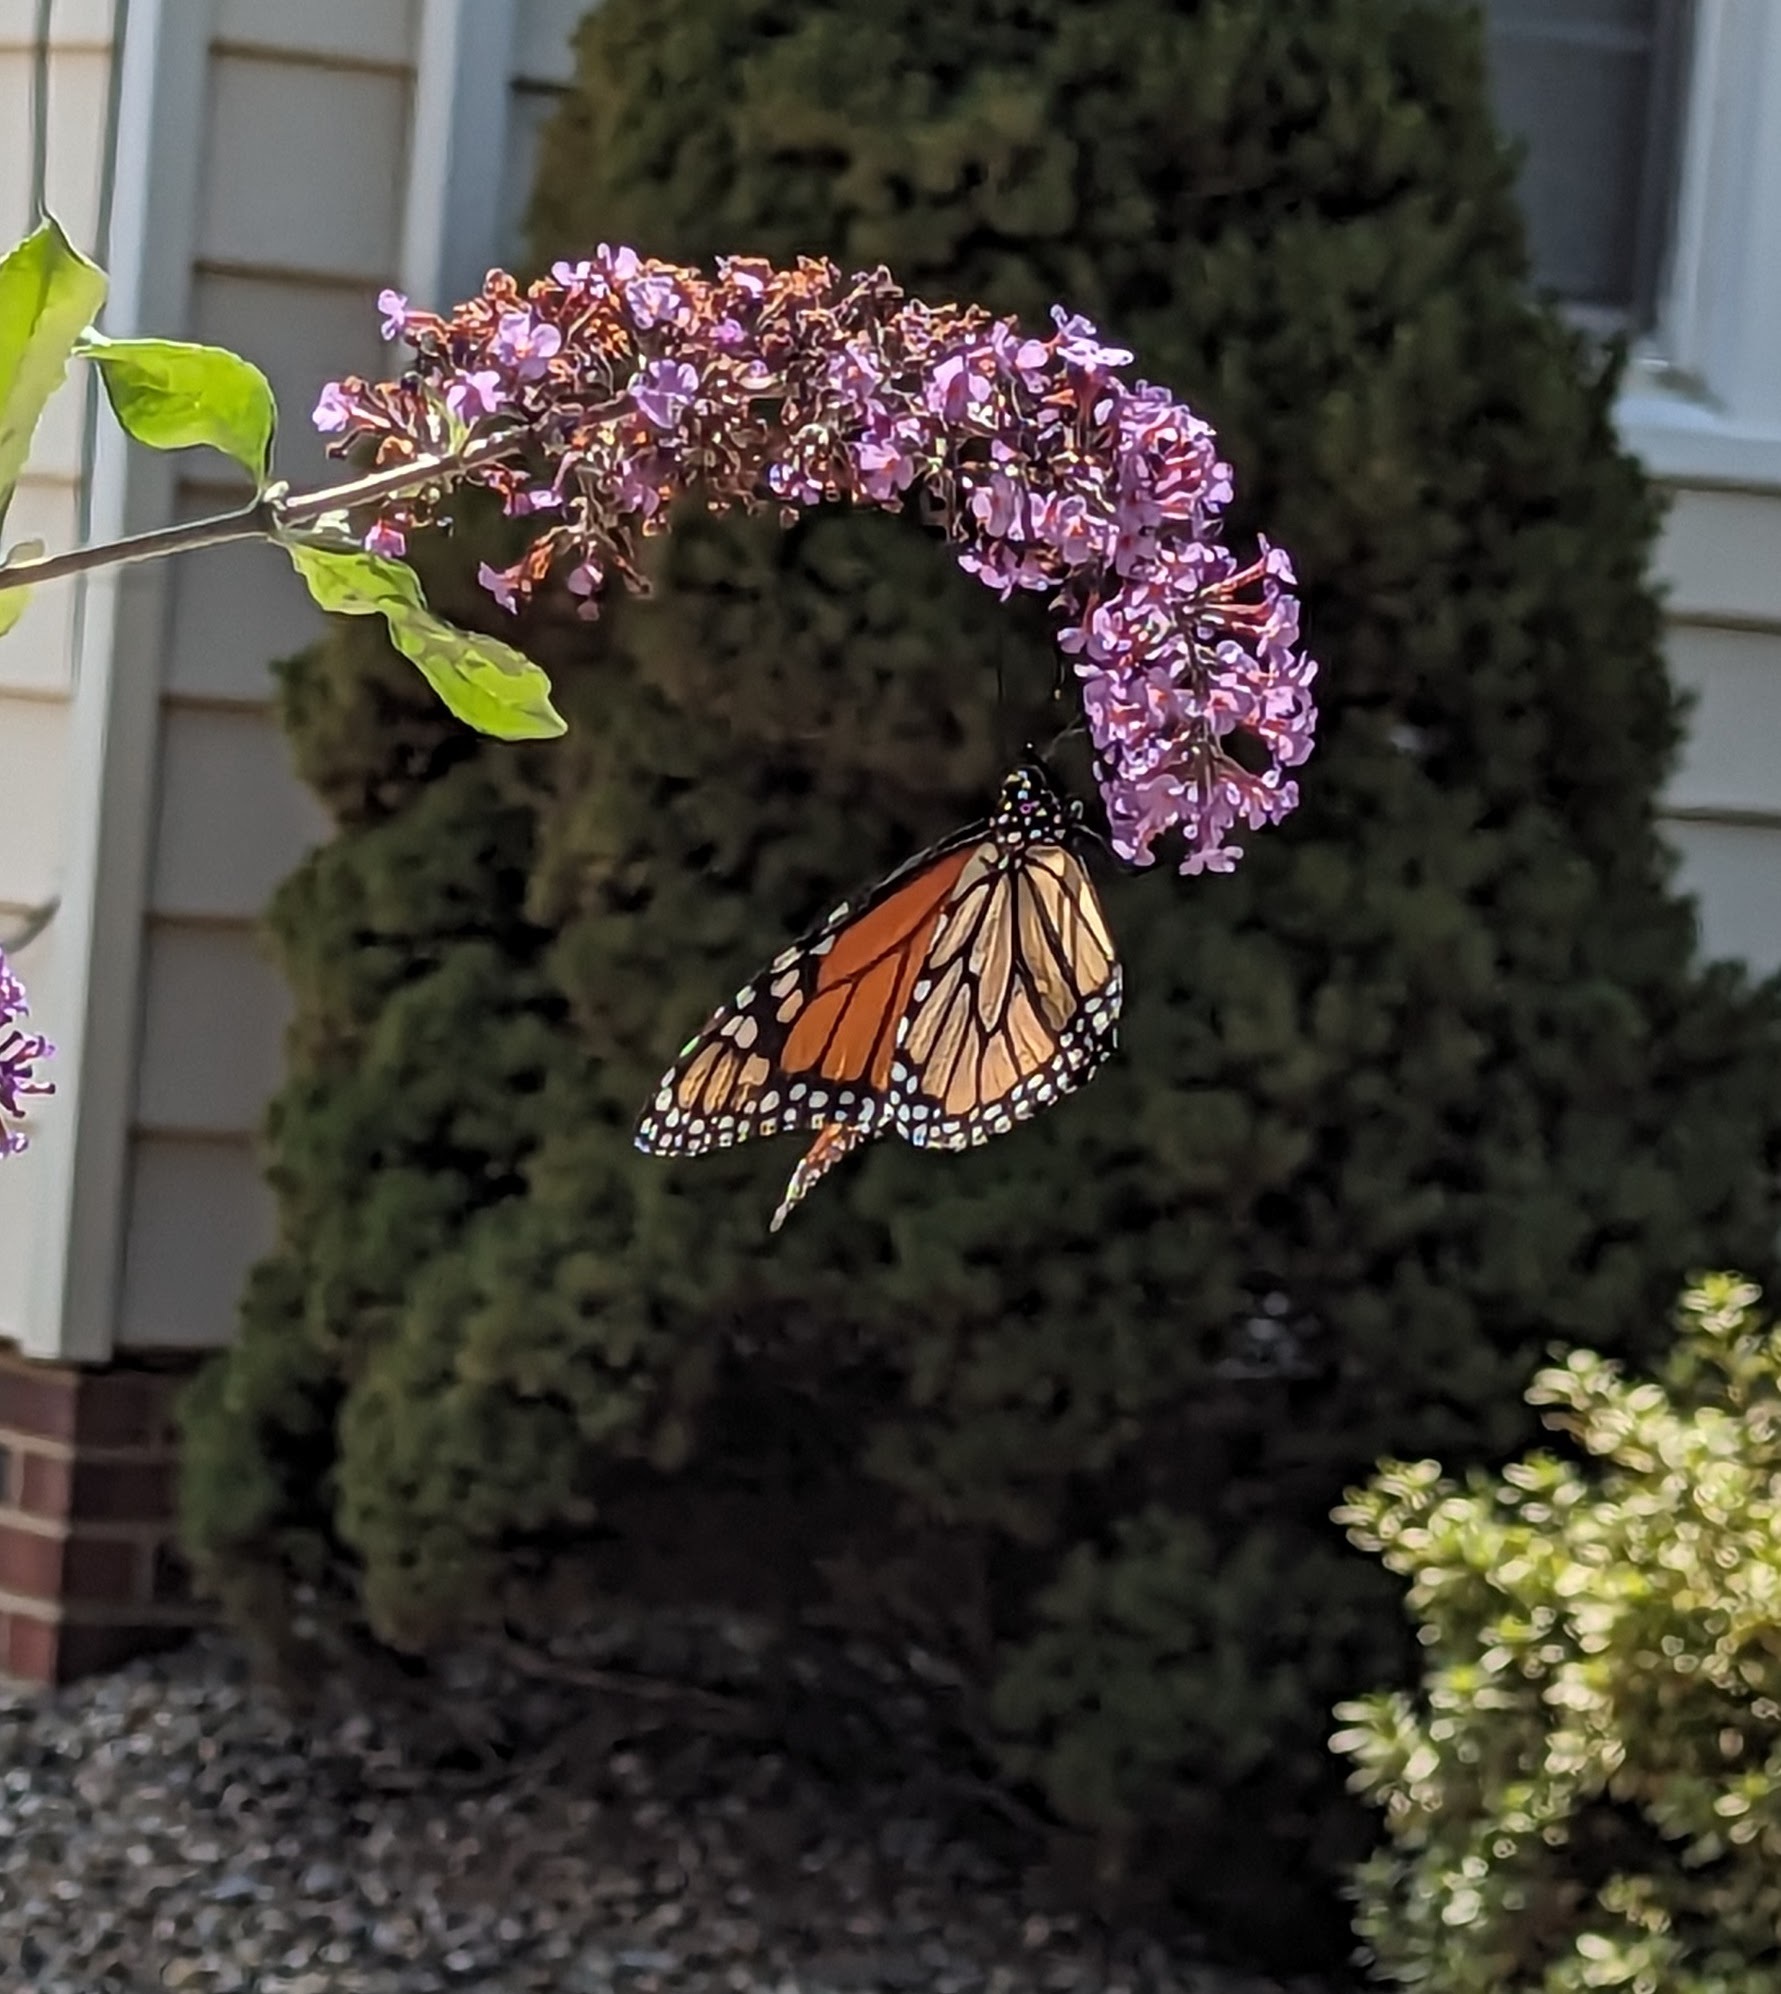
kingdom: Animalia
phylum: Arthropoda
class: Insecta
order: Lepidoptera
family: Nymphalidae
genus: Danaus
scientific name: Danaus plexippus
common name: Monarch
